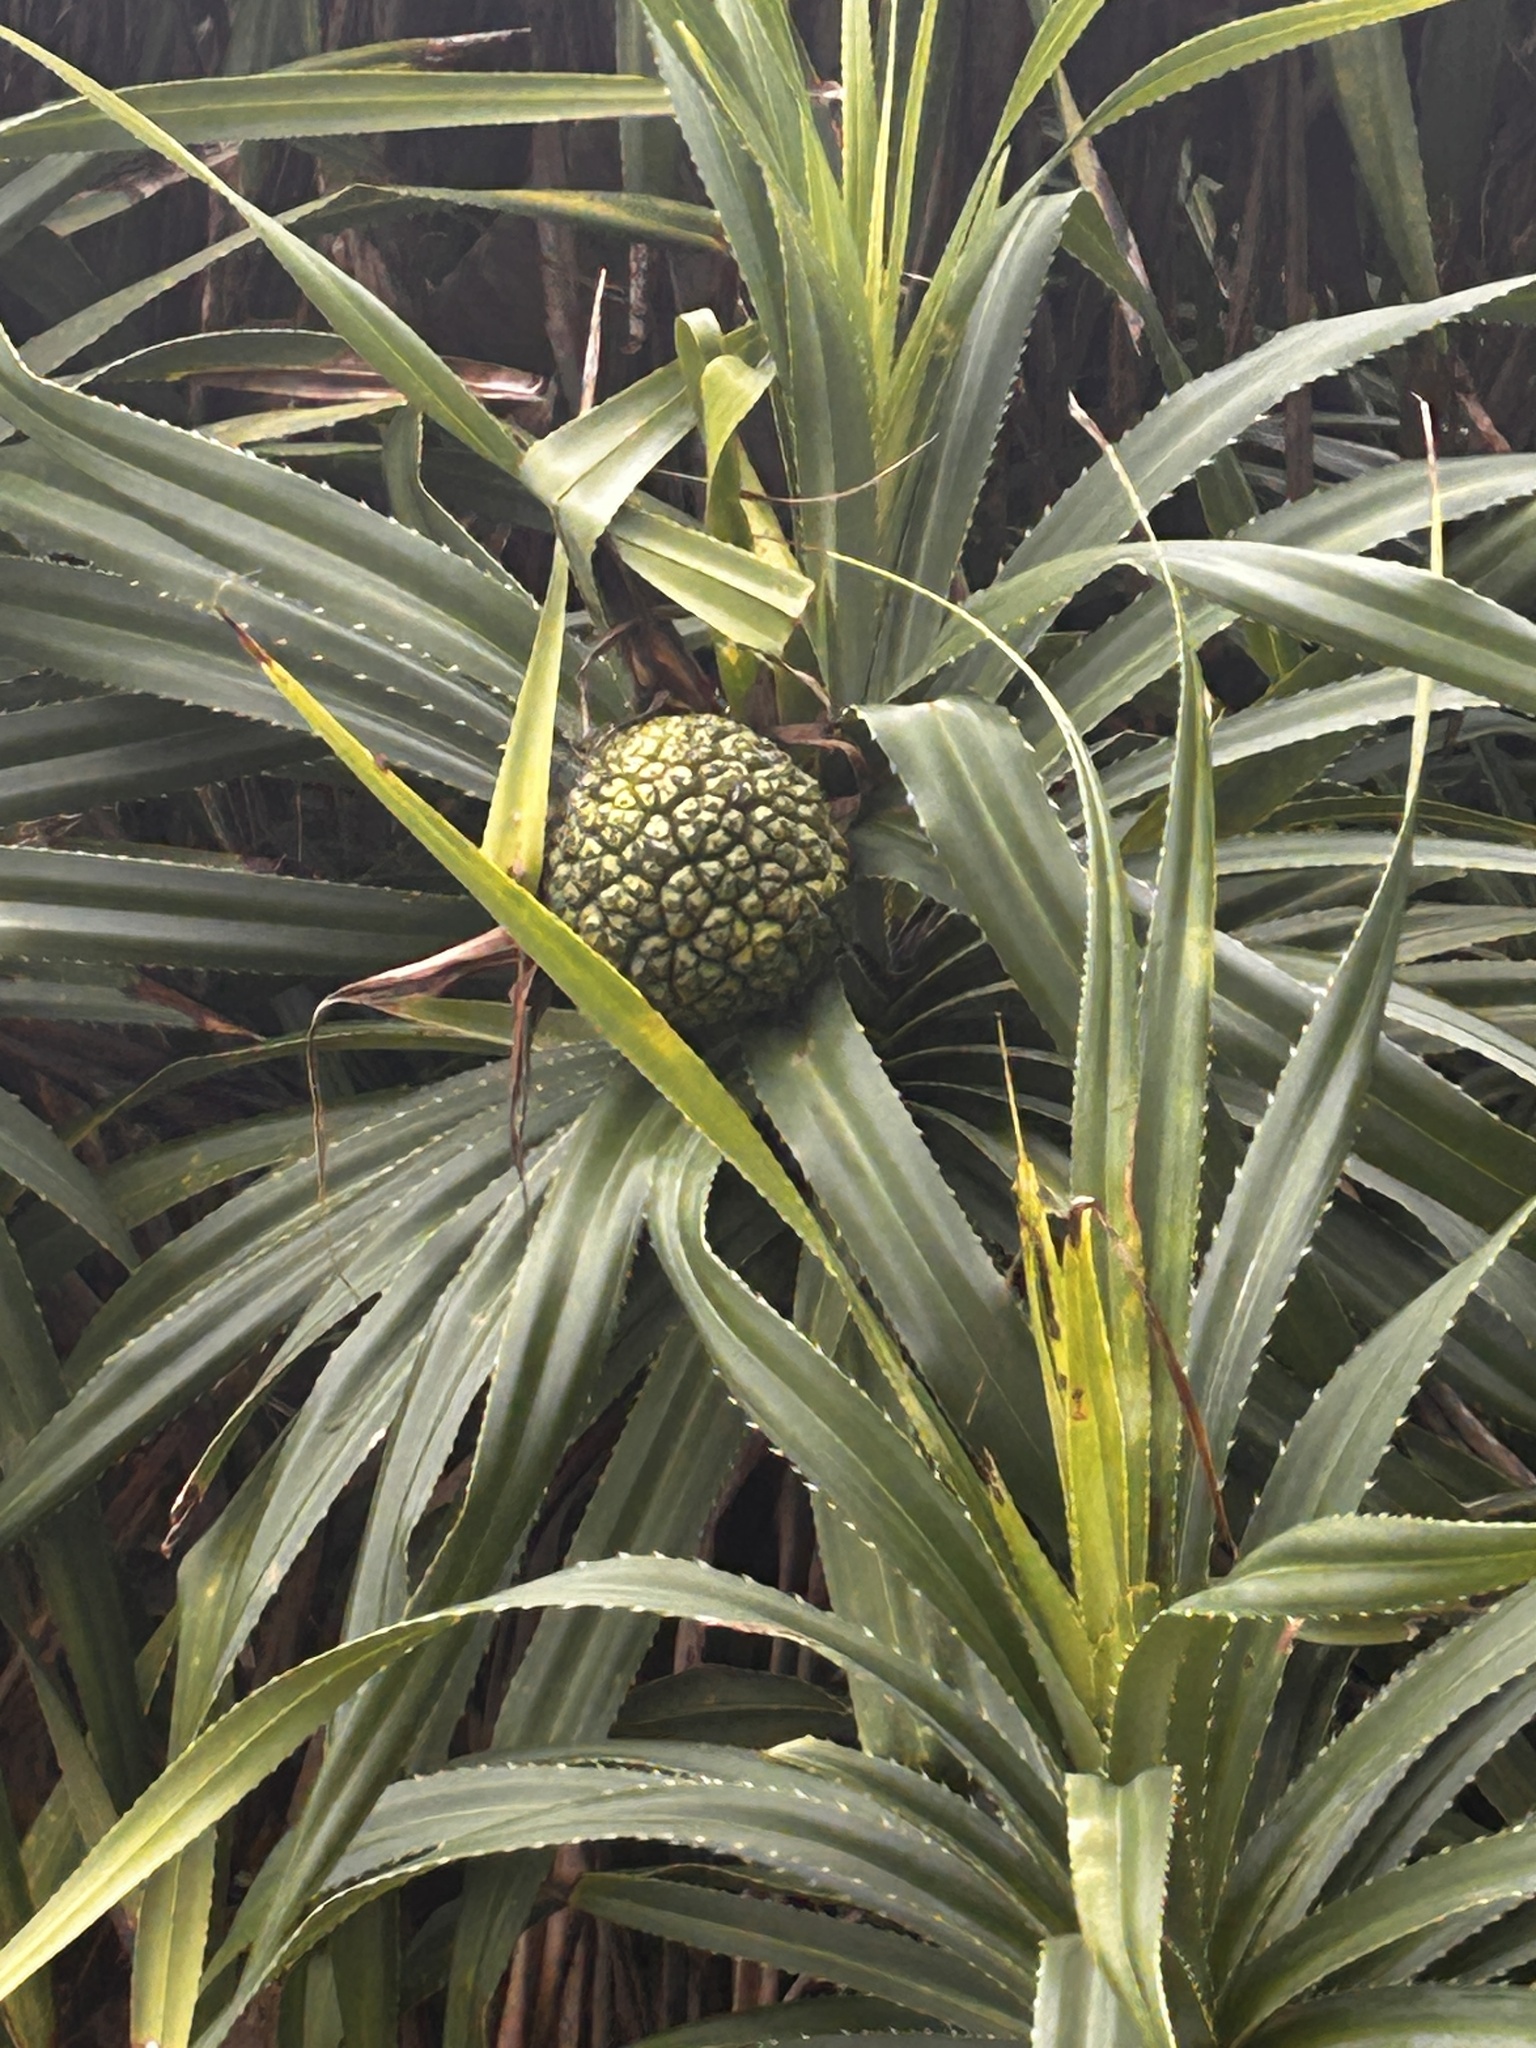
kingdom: Plantae
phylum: Tracheophyta
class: Liliopsida
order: Pandanales
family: Pandanaceae
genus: Pandanus
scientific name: Pandanus tectorius
